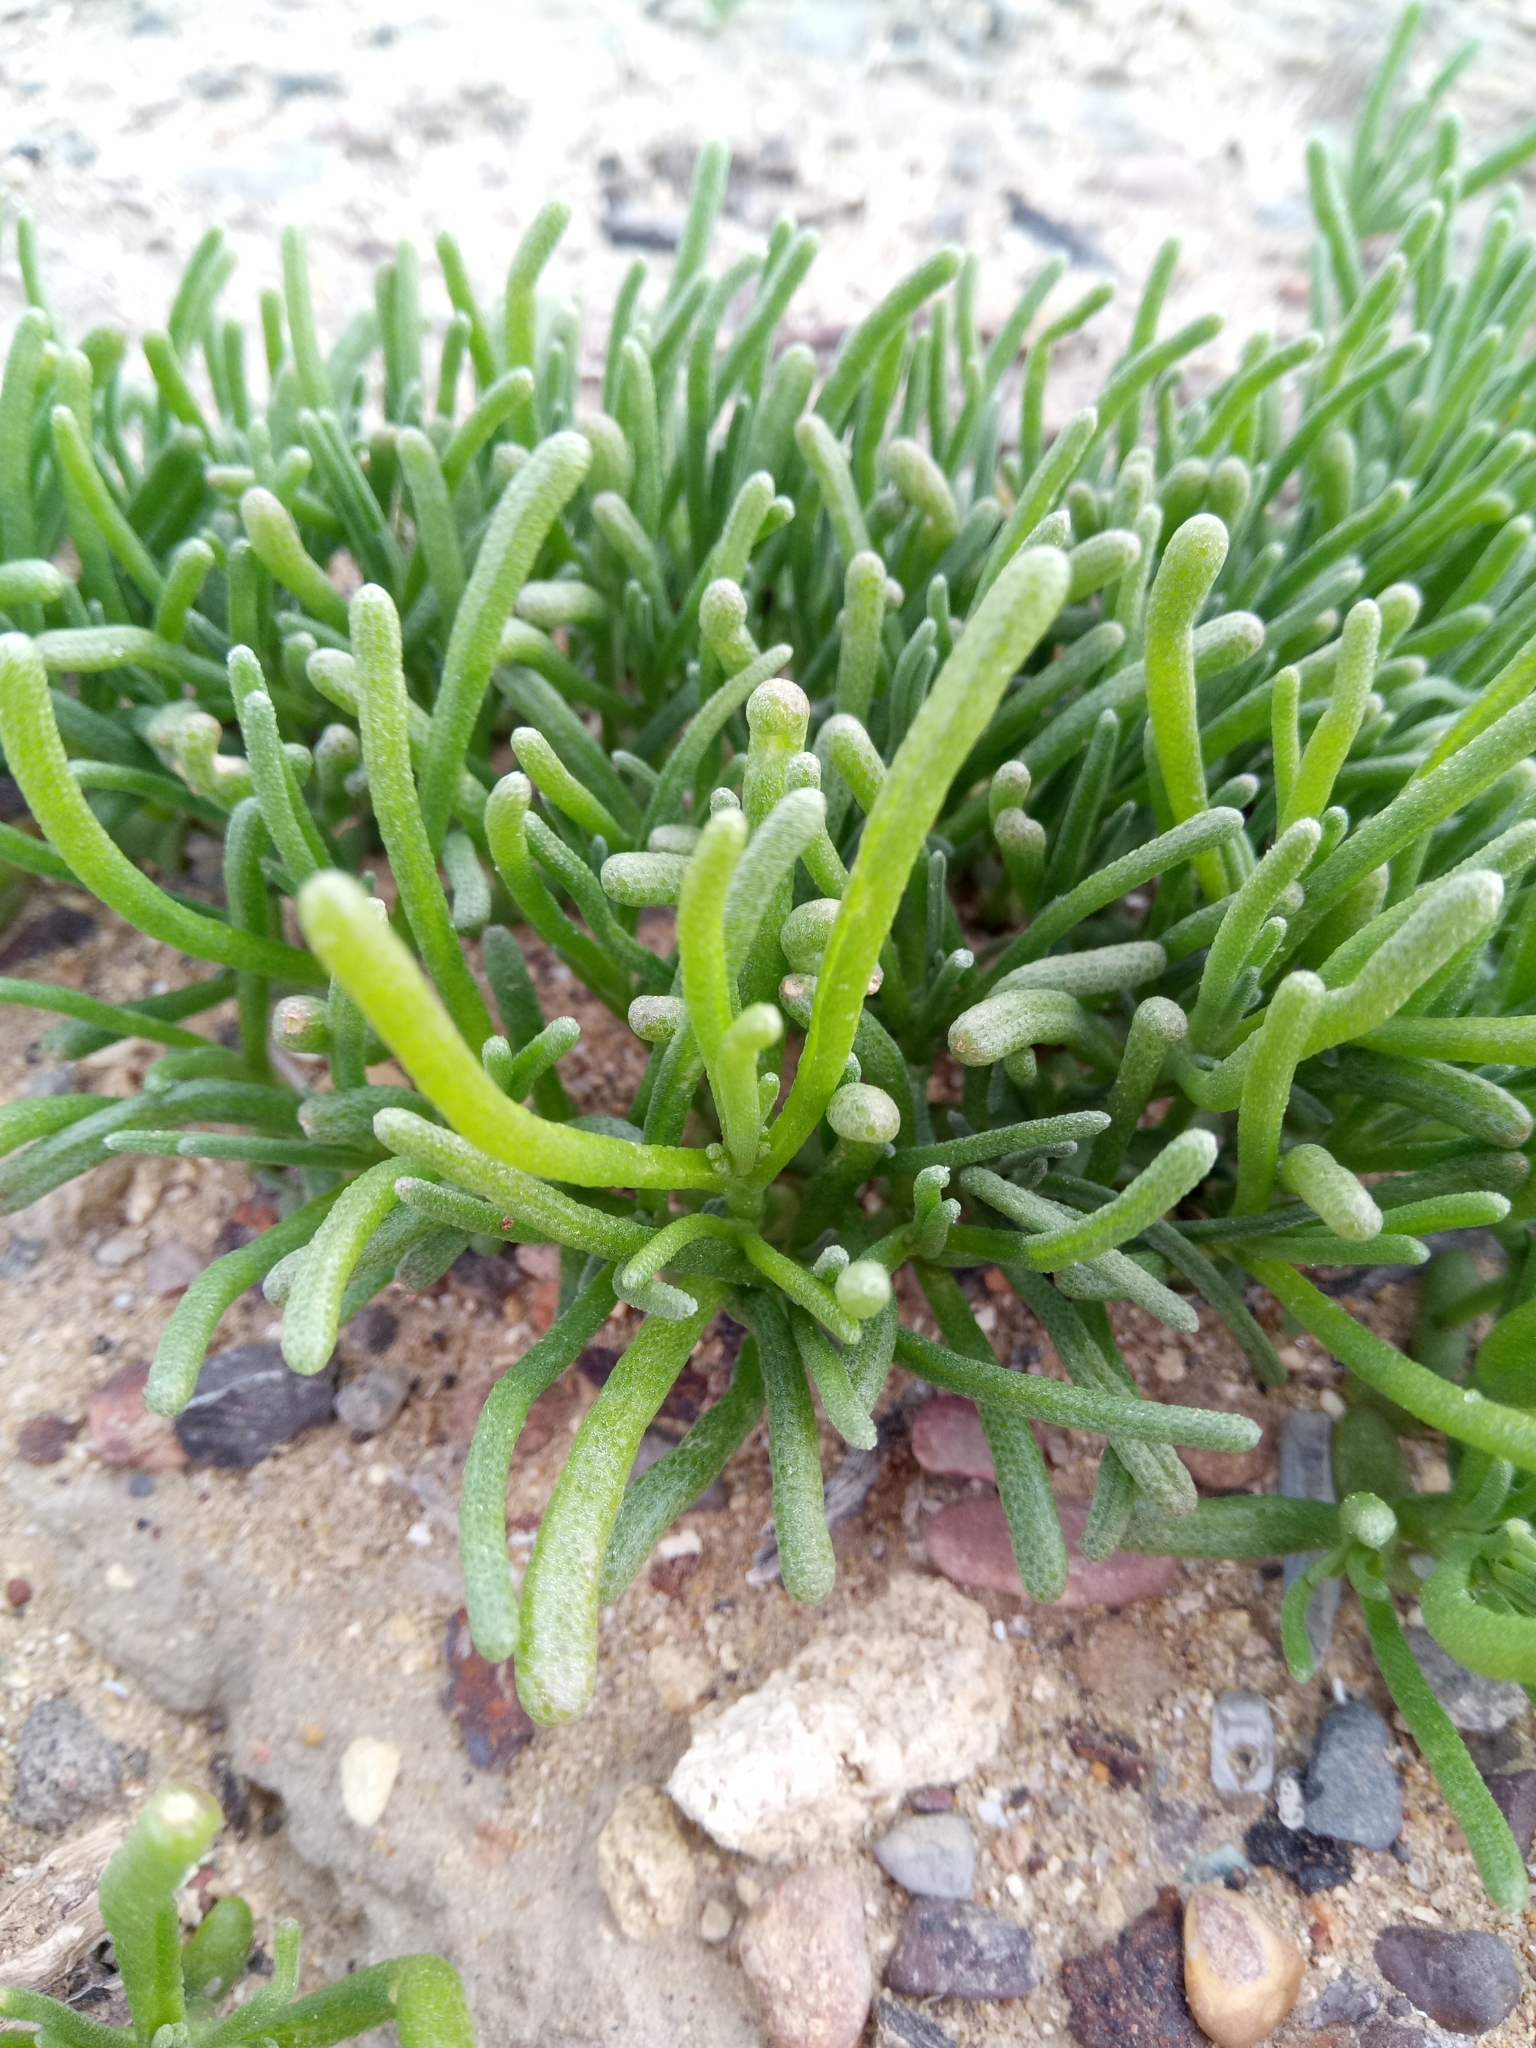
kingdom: Plantae
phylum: Tracheophyta
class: Magnoliopsida
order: Caryophyllales
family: Aizoaceae
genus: Mesembryanthemum
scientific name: Mesembryanthemum nodiflorum
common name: Slenderleaf iceplant
